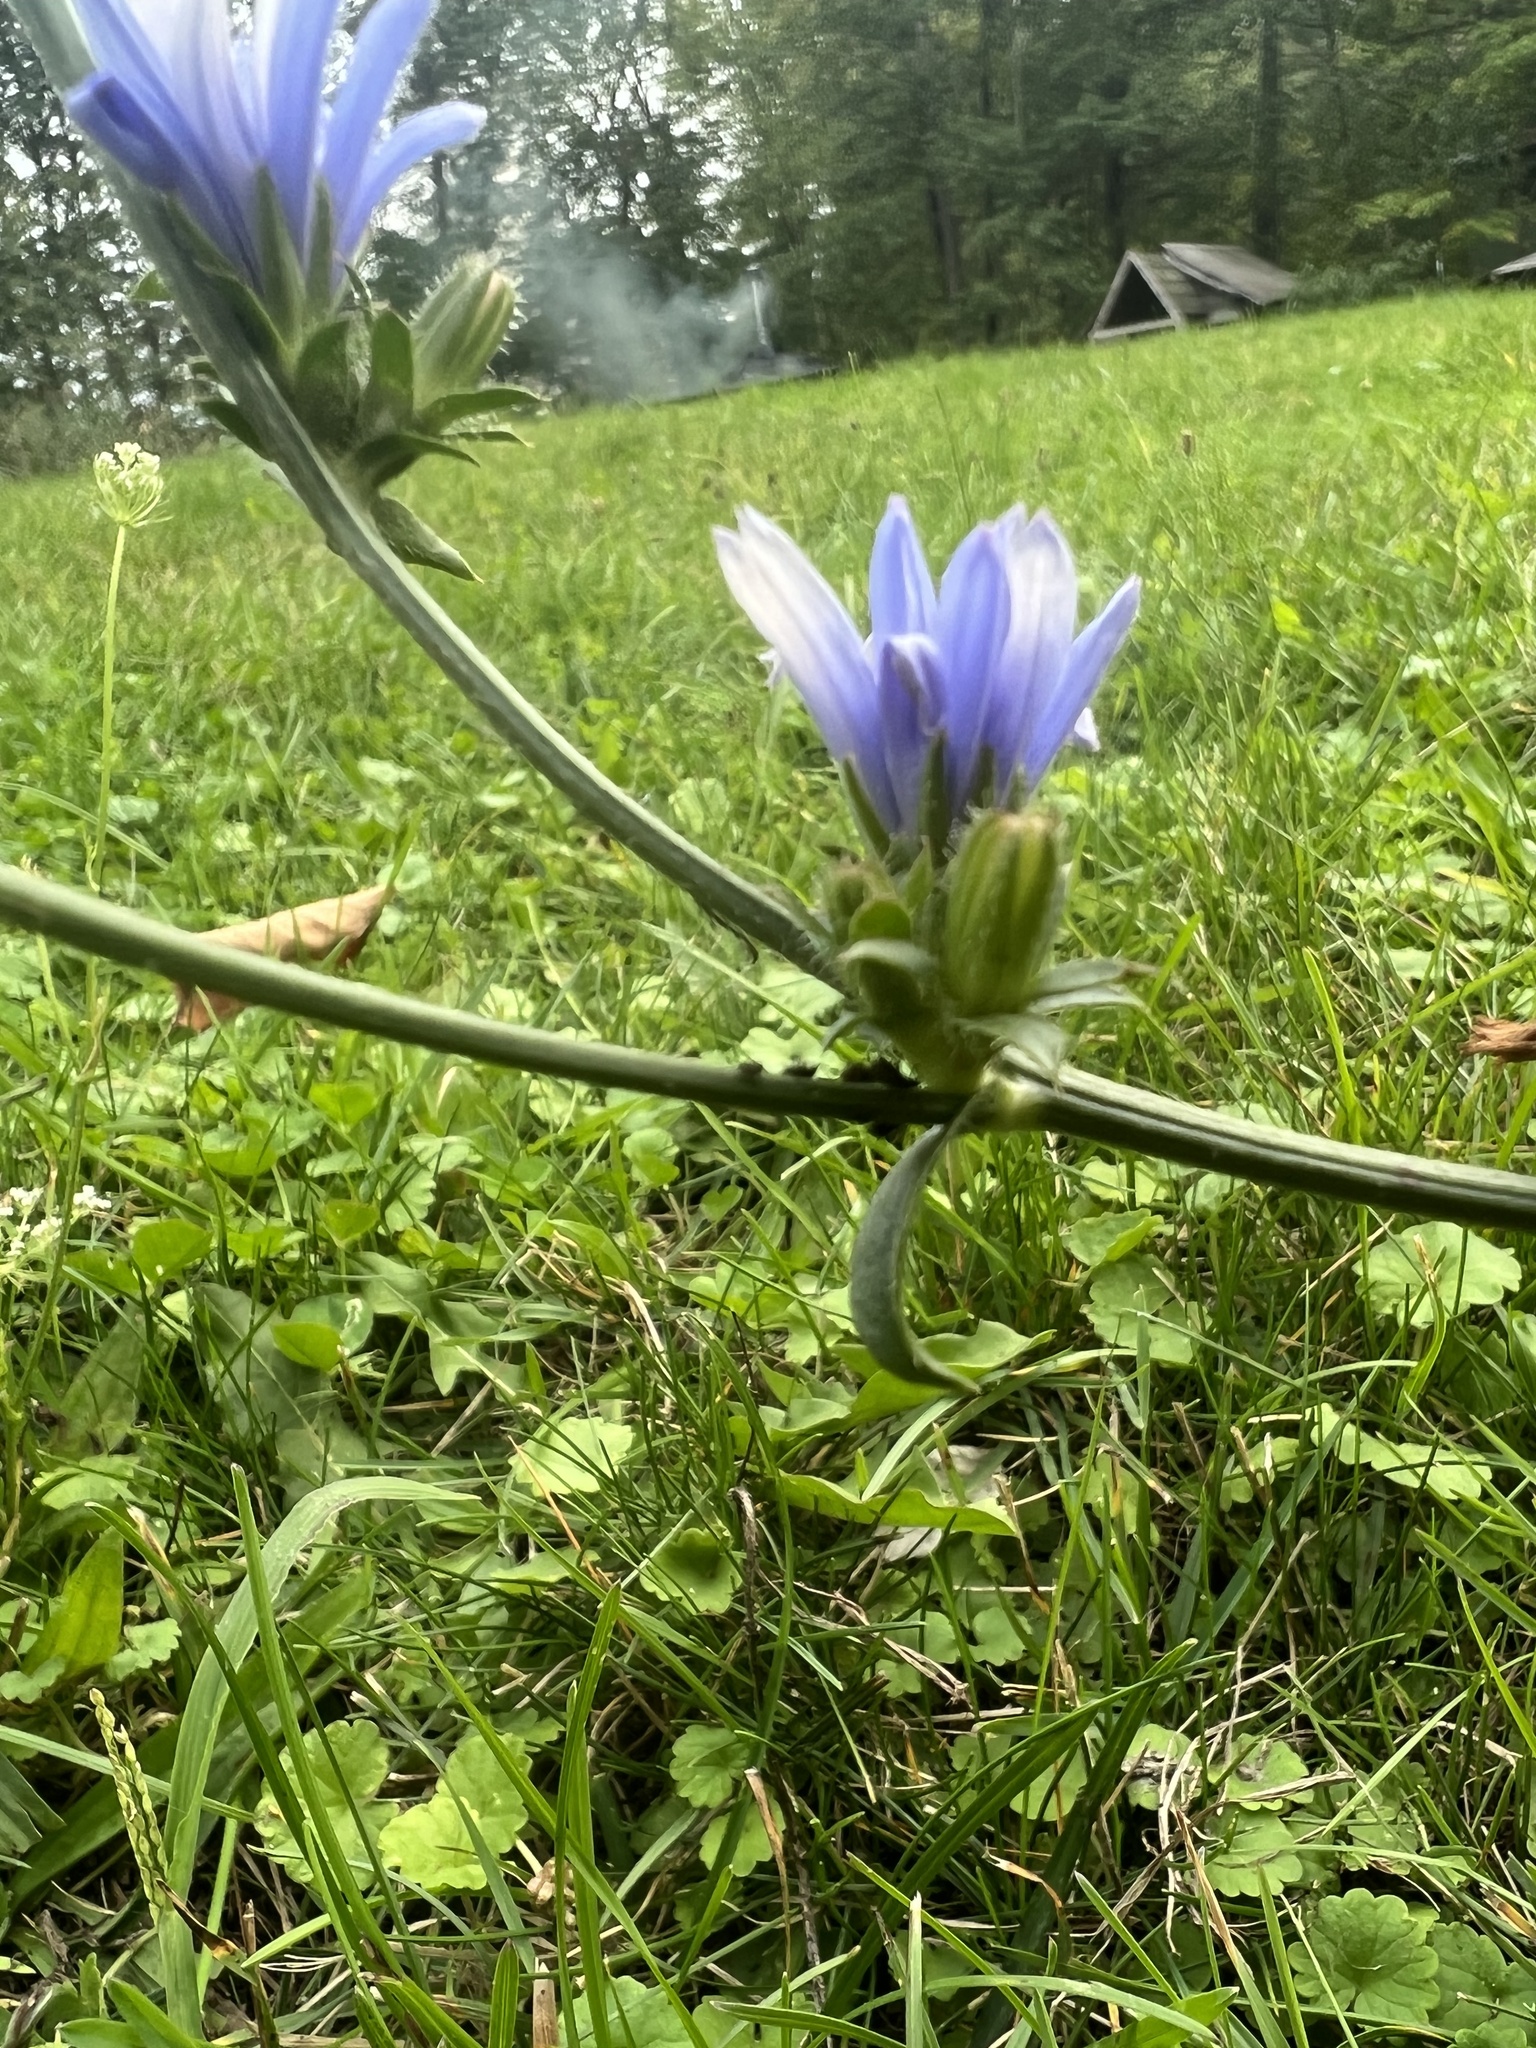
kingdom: Plantae
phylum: Tracheophyta
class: Magnoliopsida
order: Asterales
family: Asteraceae
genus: Cichorium
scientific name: Cichorium intybus
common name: Chicory
